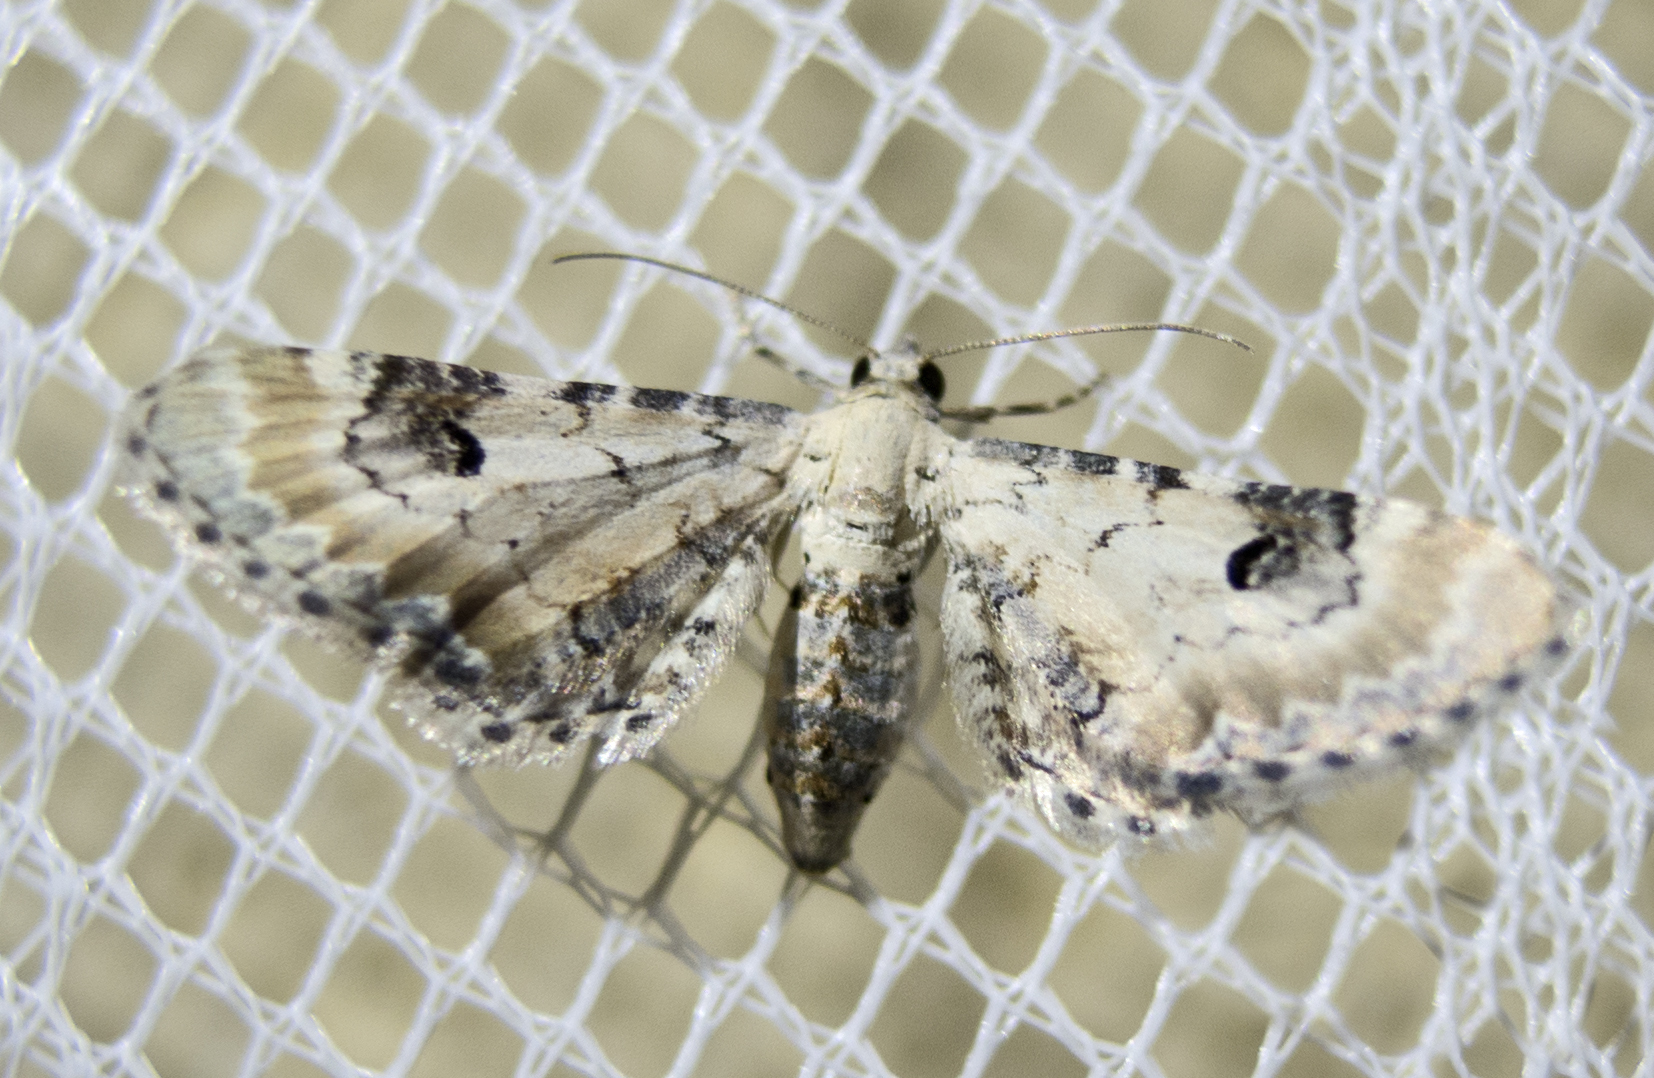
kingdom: Animalia
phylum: Arthropoda
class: Insecta
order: Lepidoptera
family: Geometridae
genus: Eupithecia
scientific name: Eupithecia centaureata
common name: Lime-speck pug
